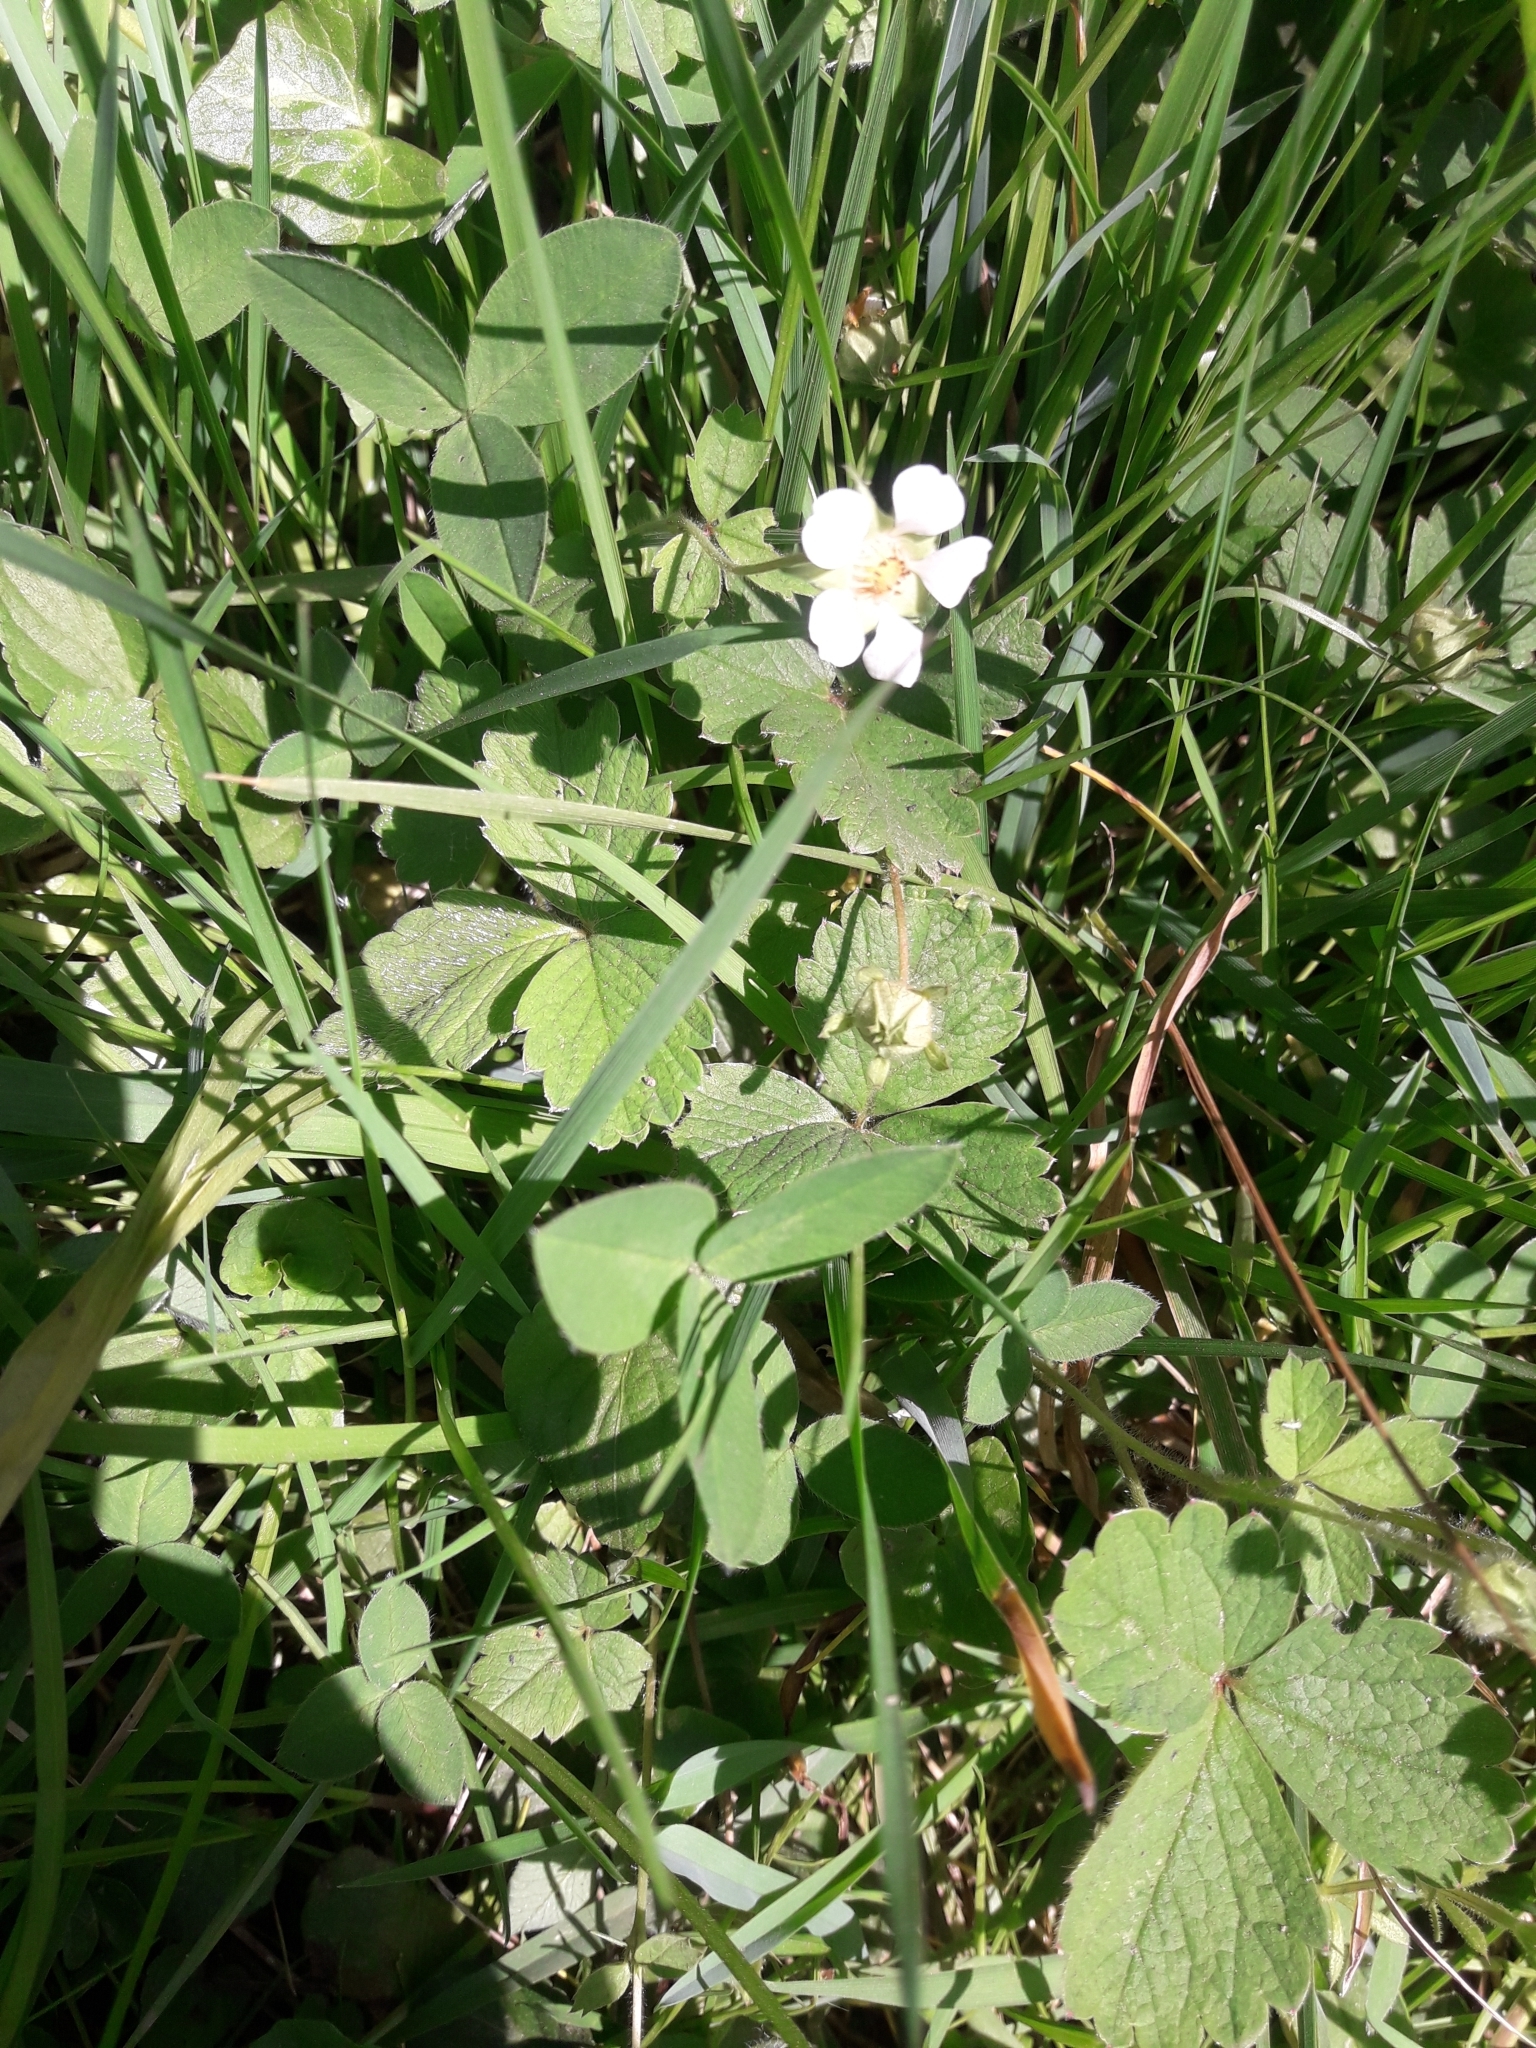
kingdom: Plantae
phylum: Tracheophyta
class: Magnoliopsida
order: Rosales
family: Rosaceae
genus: Potentilla
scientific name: Potentilla sterilis
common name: Barren strawberry
